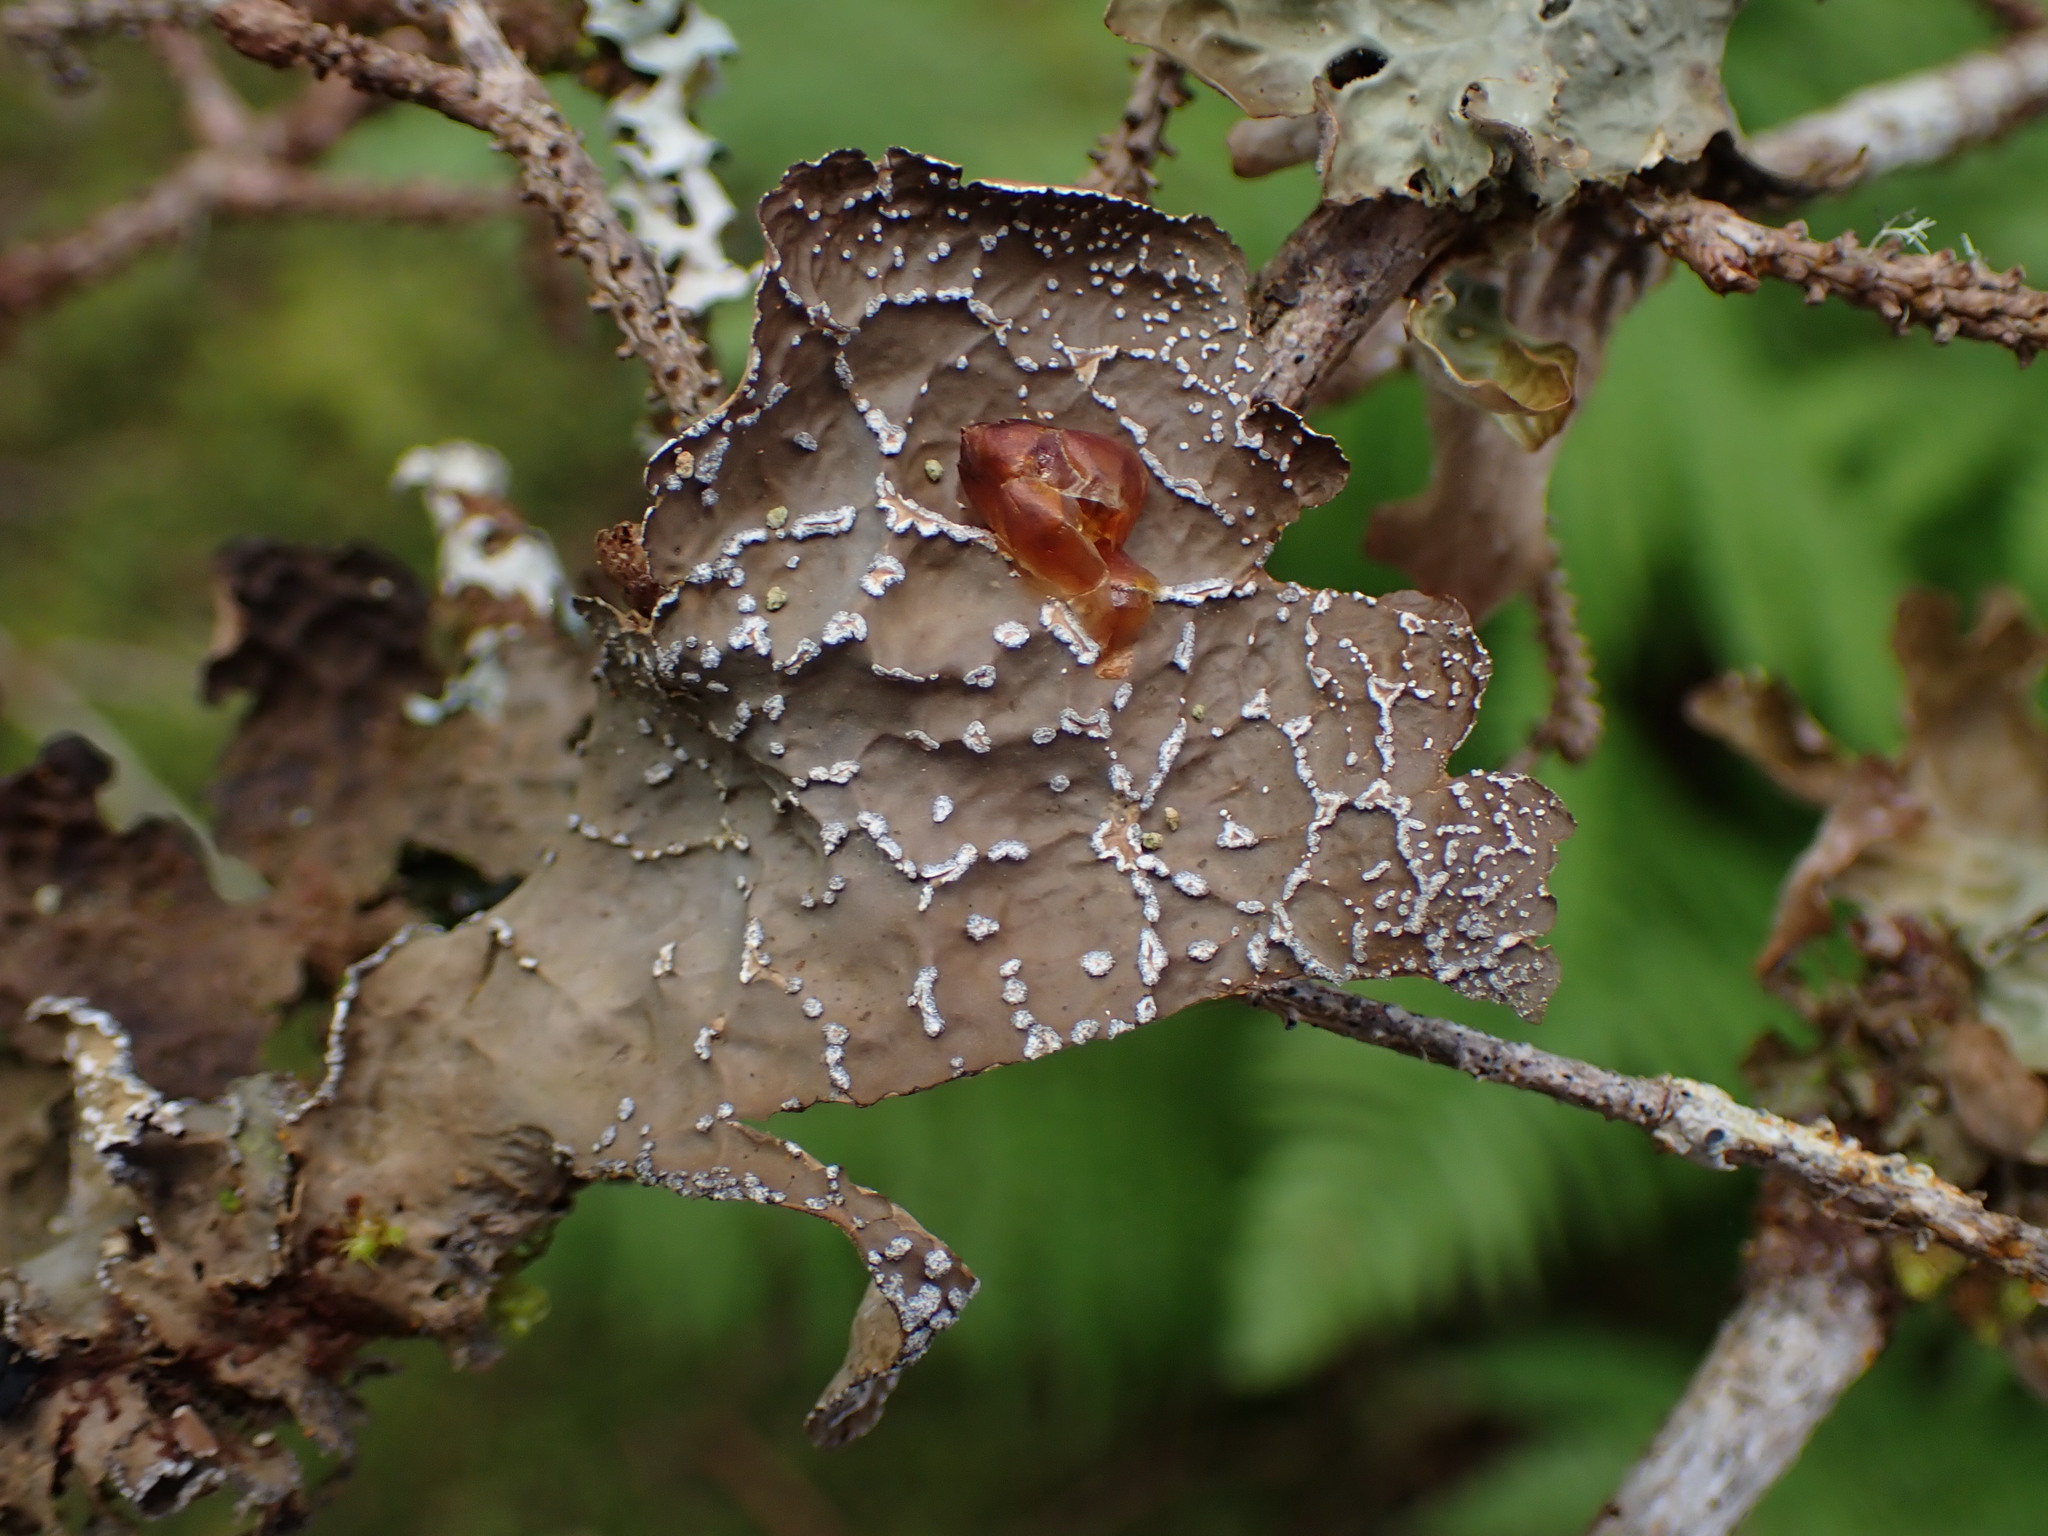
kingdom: Fungi
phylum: Ascomycota
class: Lecanoromycetes
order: Peltigerales
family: Lobariaceae
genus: Lobaria
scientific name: Lobaria anomala
